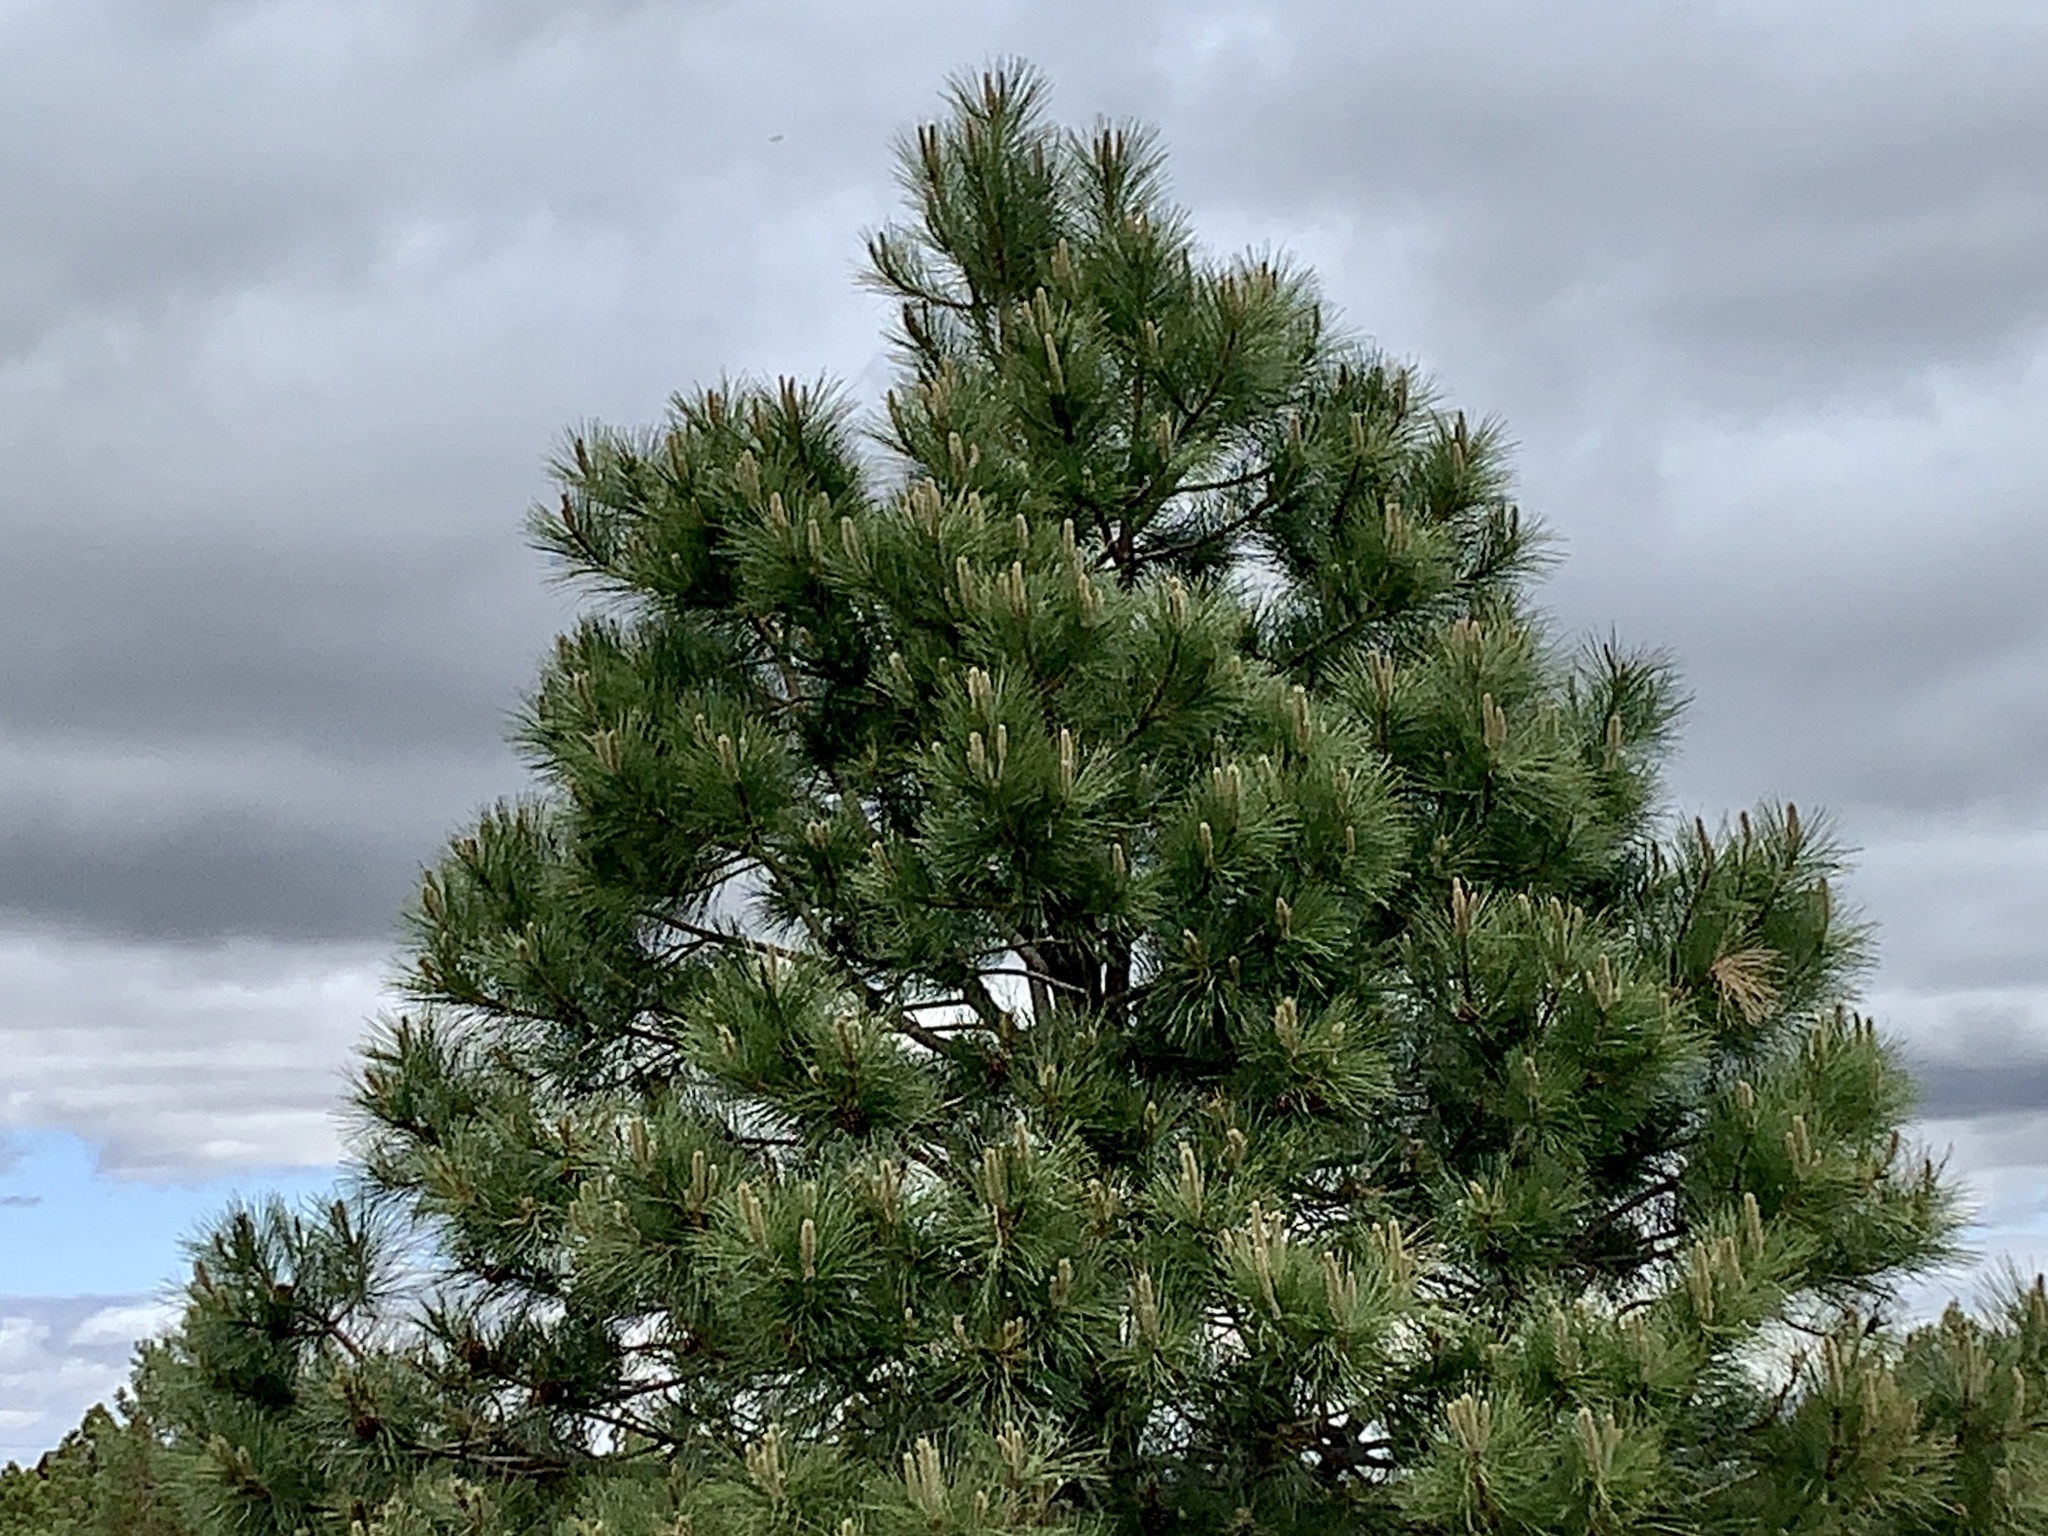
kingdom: Plantae
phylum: Tracheophyta
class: Pinopsida
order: Pinales
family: Pinaceae
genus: Pinus
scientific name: Pinus ponderosa
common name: Western yellow-pine
